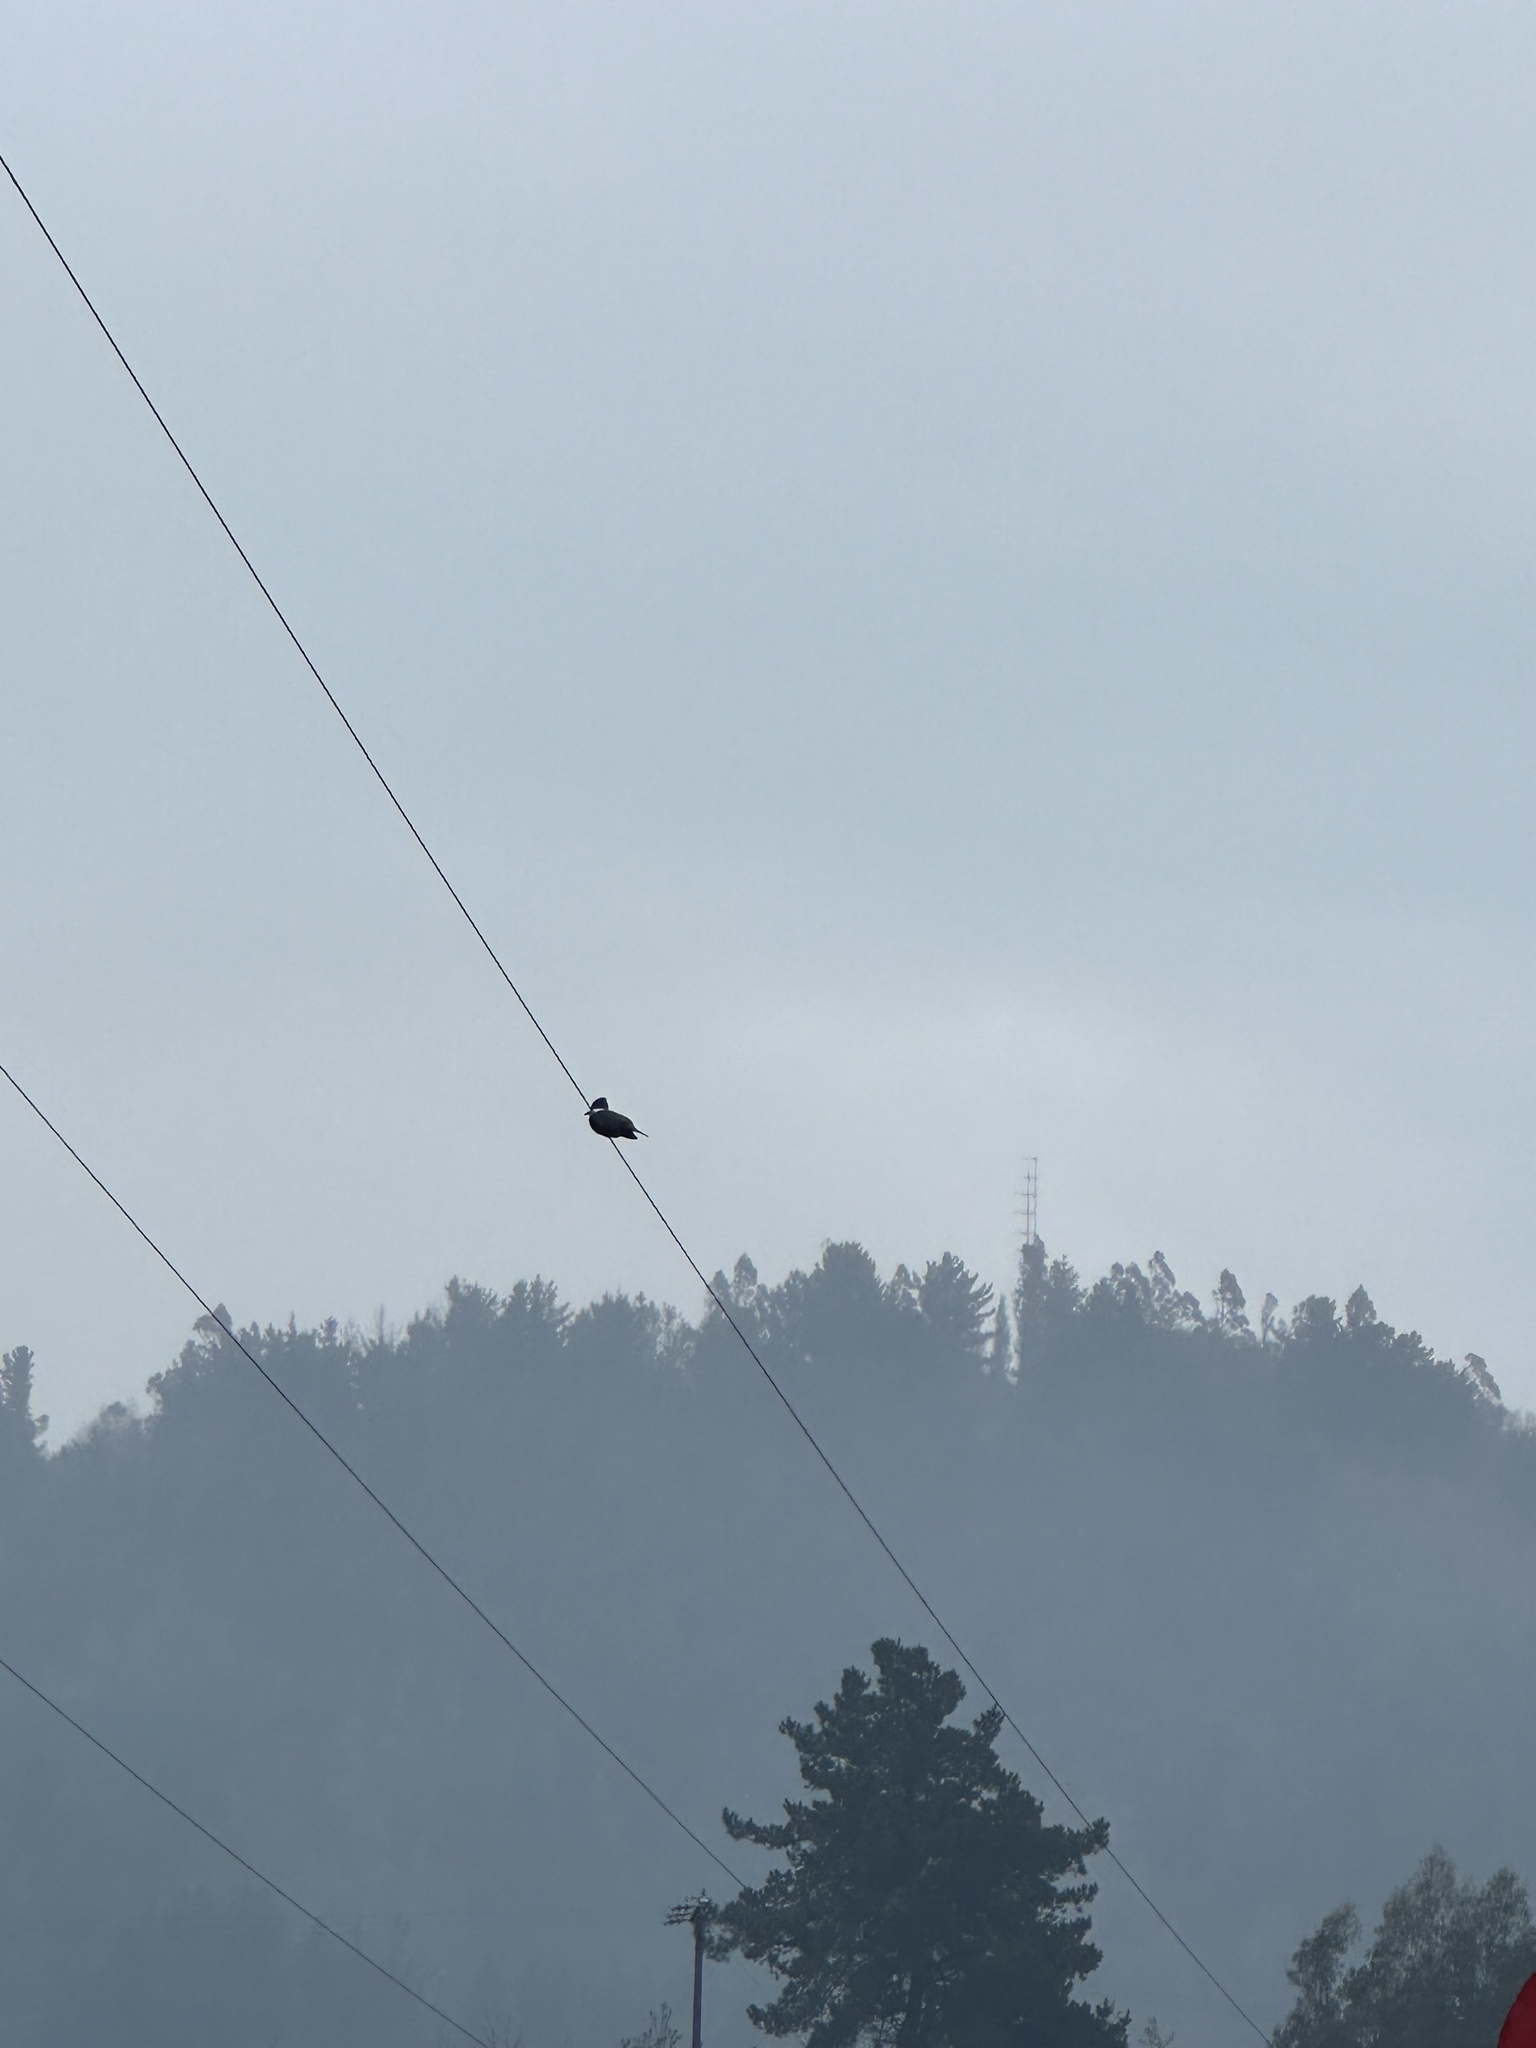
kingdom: Animalia
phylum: Chordata
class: Aves
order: Coraciiformes
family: Alcedinidae
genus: Megaceryle
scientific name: Megaceryle torquata
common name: Ringed kingfisher
